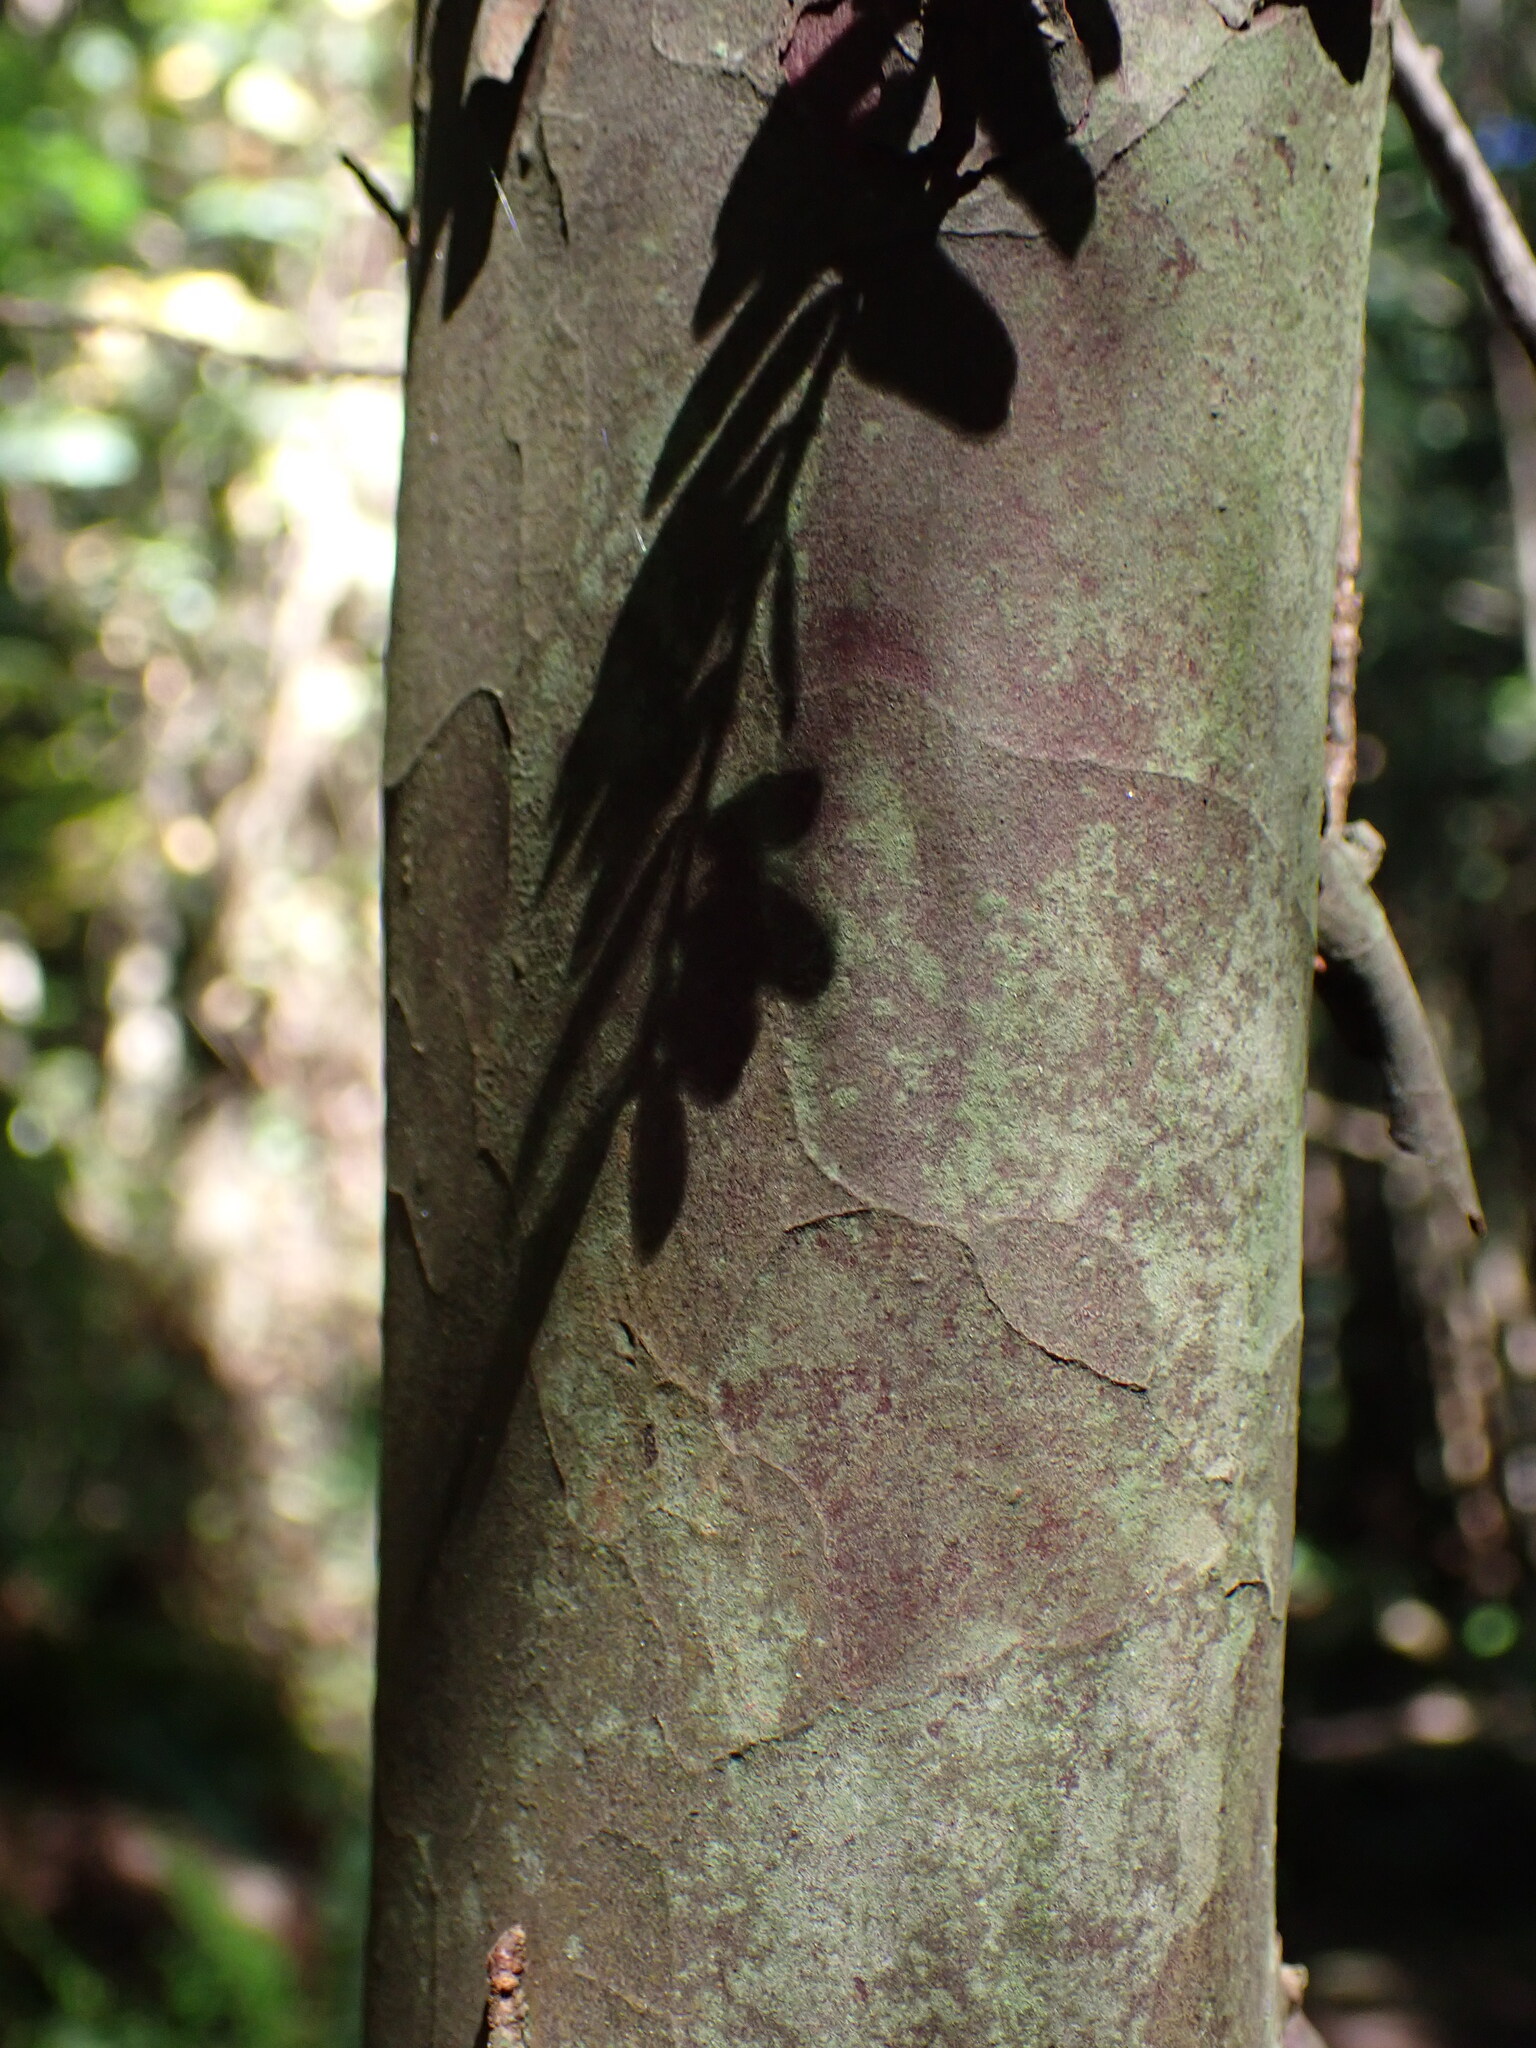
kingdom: Plantae
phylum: Tracheophyta
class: Pinopsida
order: Pinales
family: Taxaceae
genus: Taxus
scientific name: Taxus brevifolia
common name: Pacific yew
